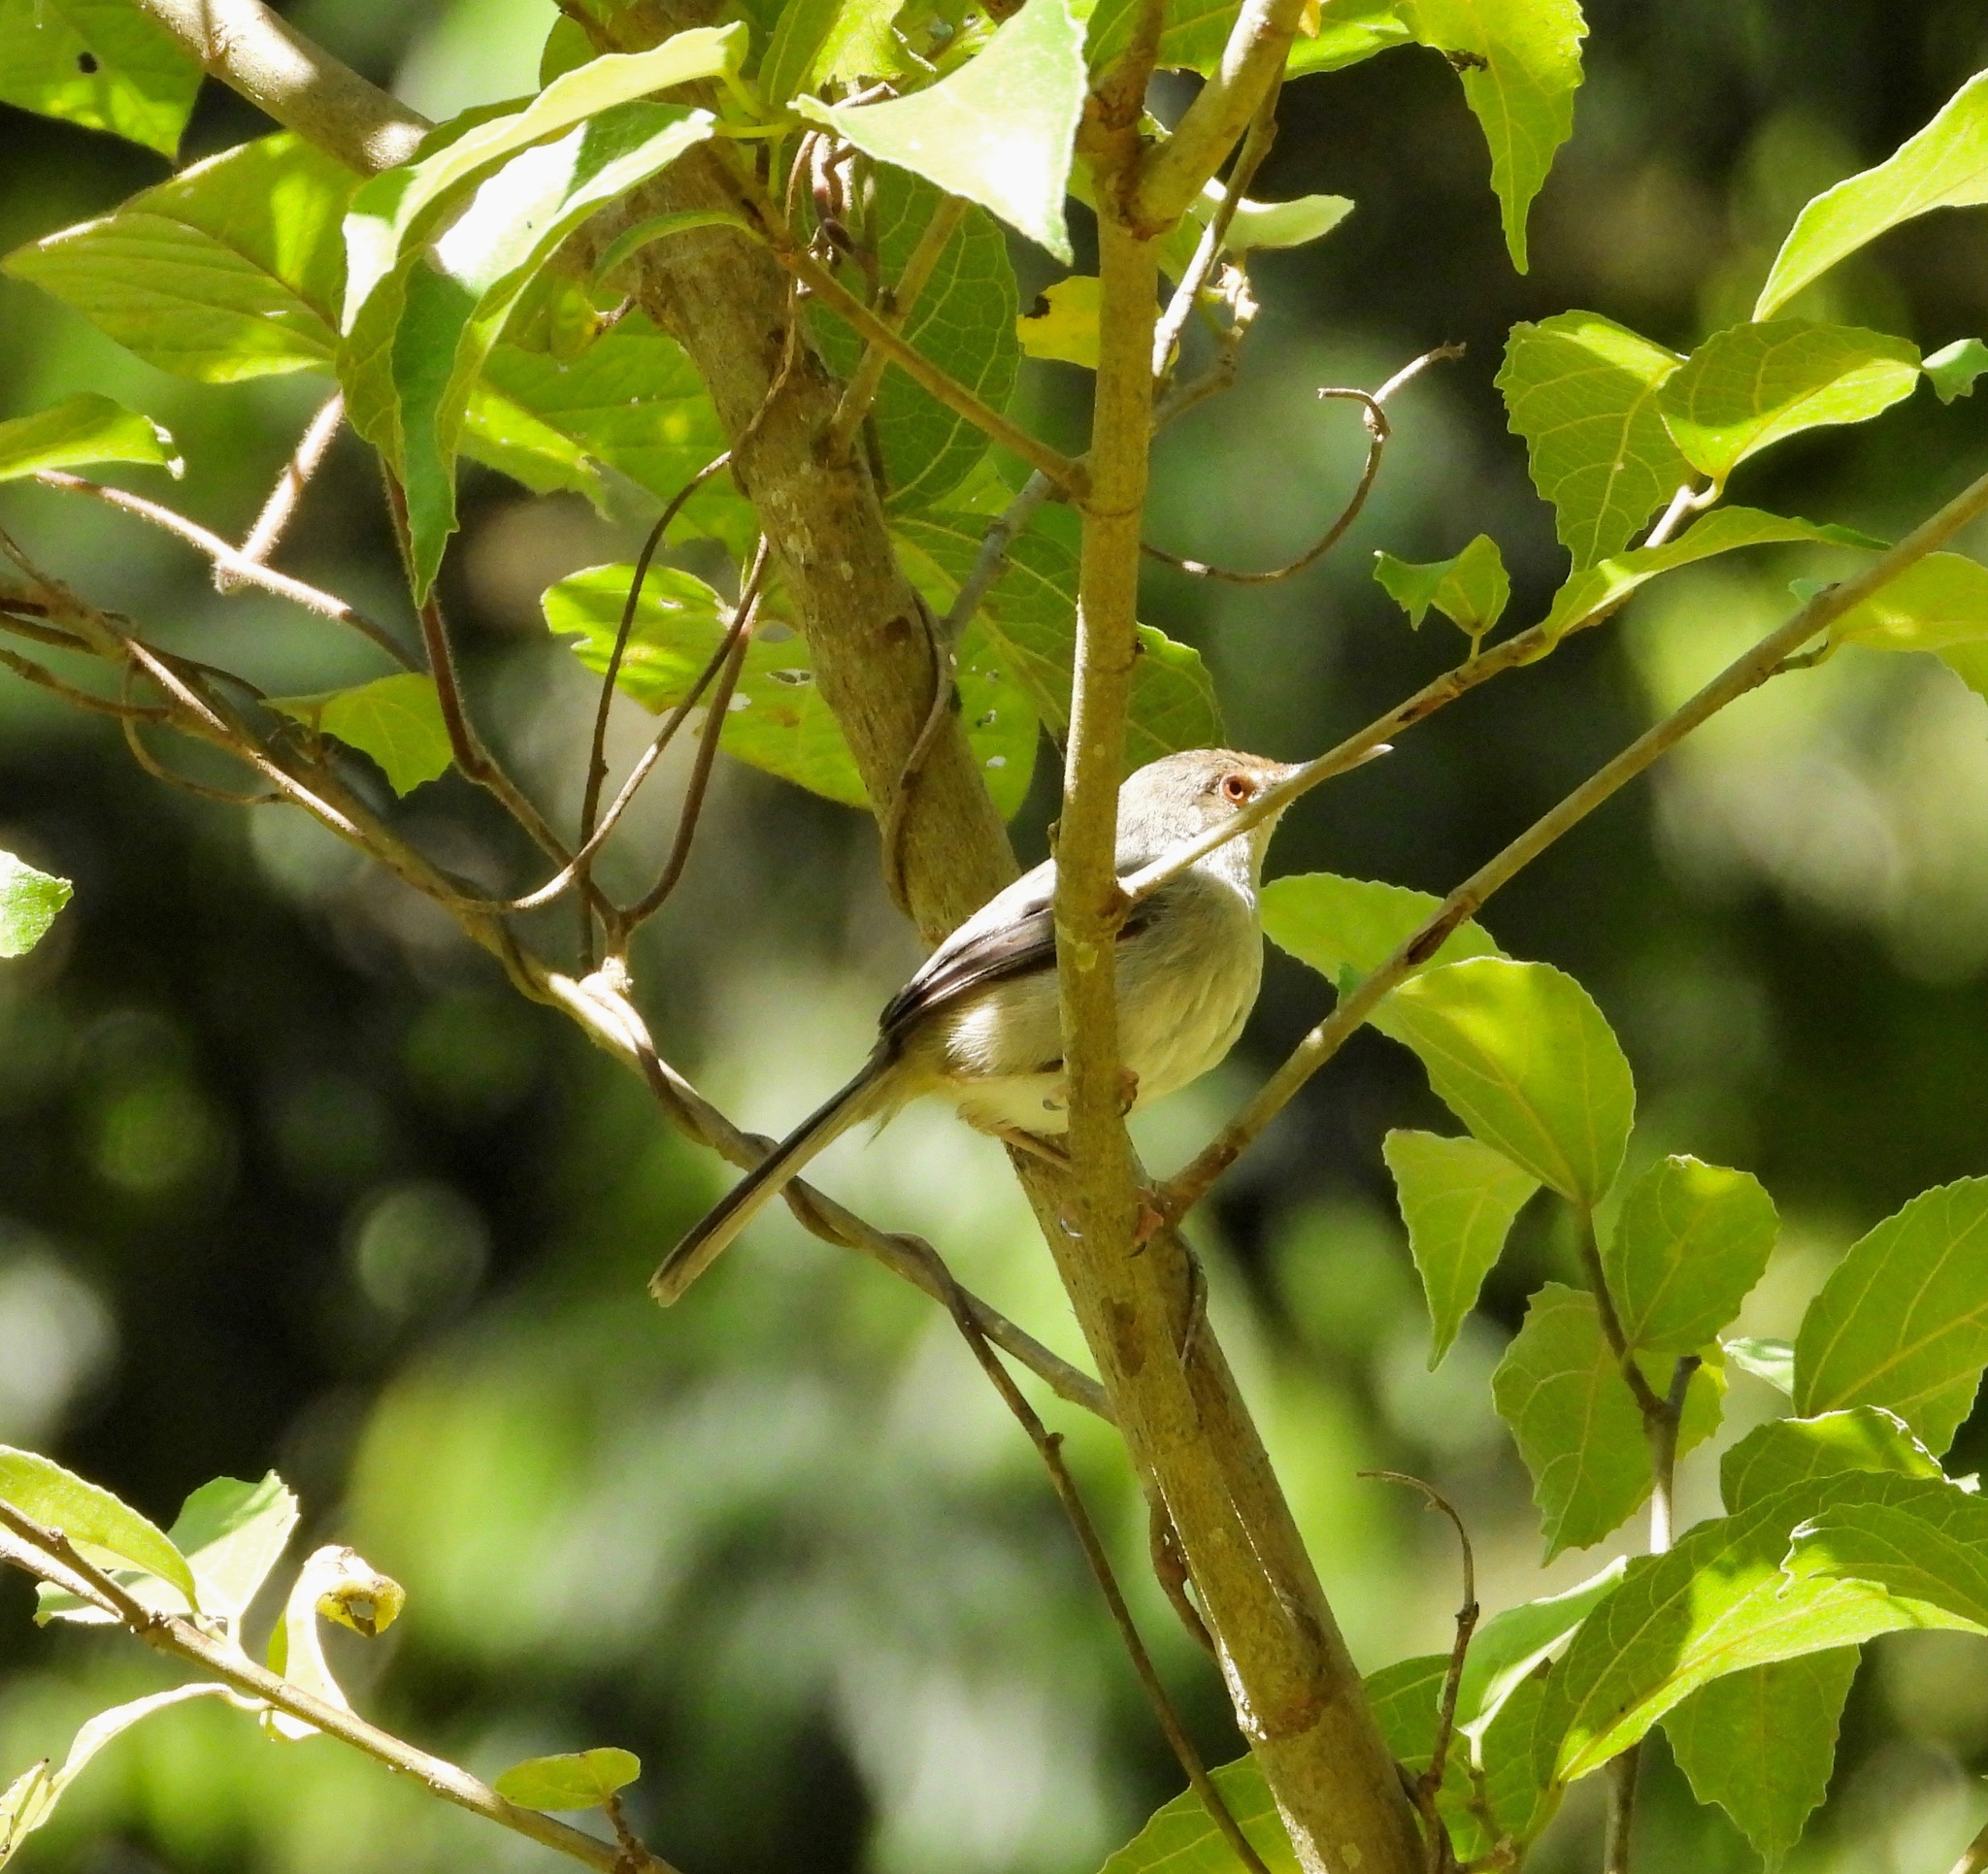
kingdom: Animalia
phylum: Chordata
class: Aves
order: Passeriformes
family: Cisticolidae
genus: Artisornis
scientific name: Artisornis moreaui
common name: Long-billed tailorbird
